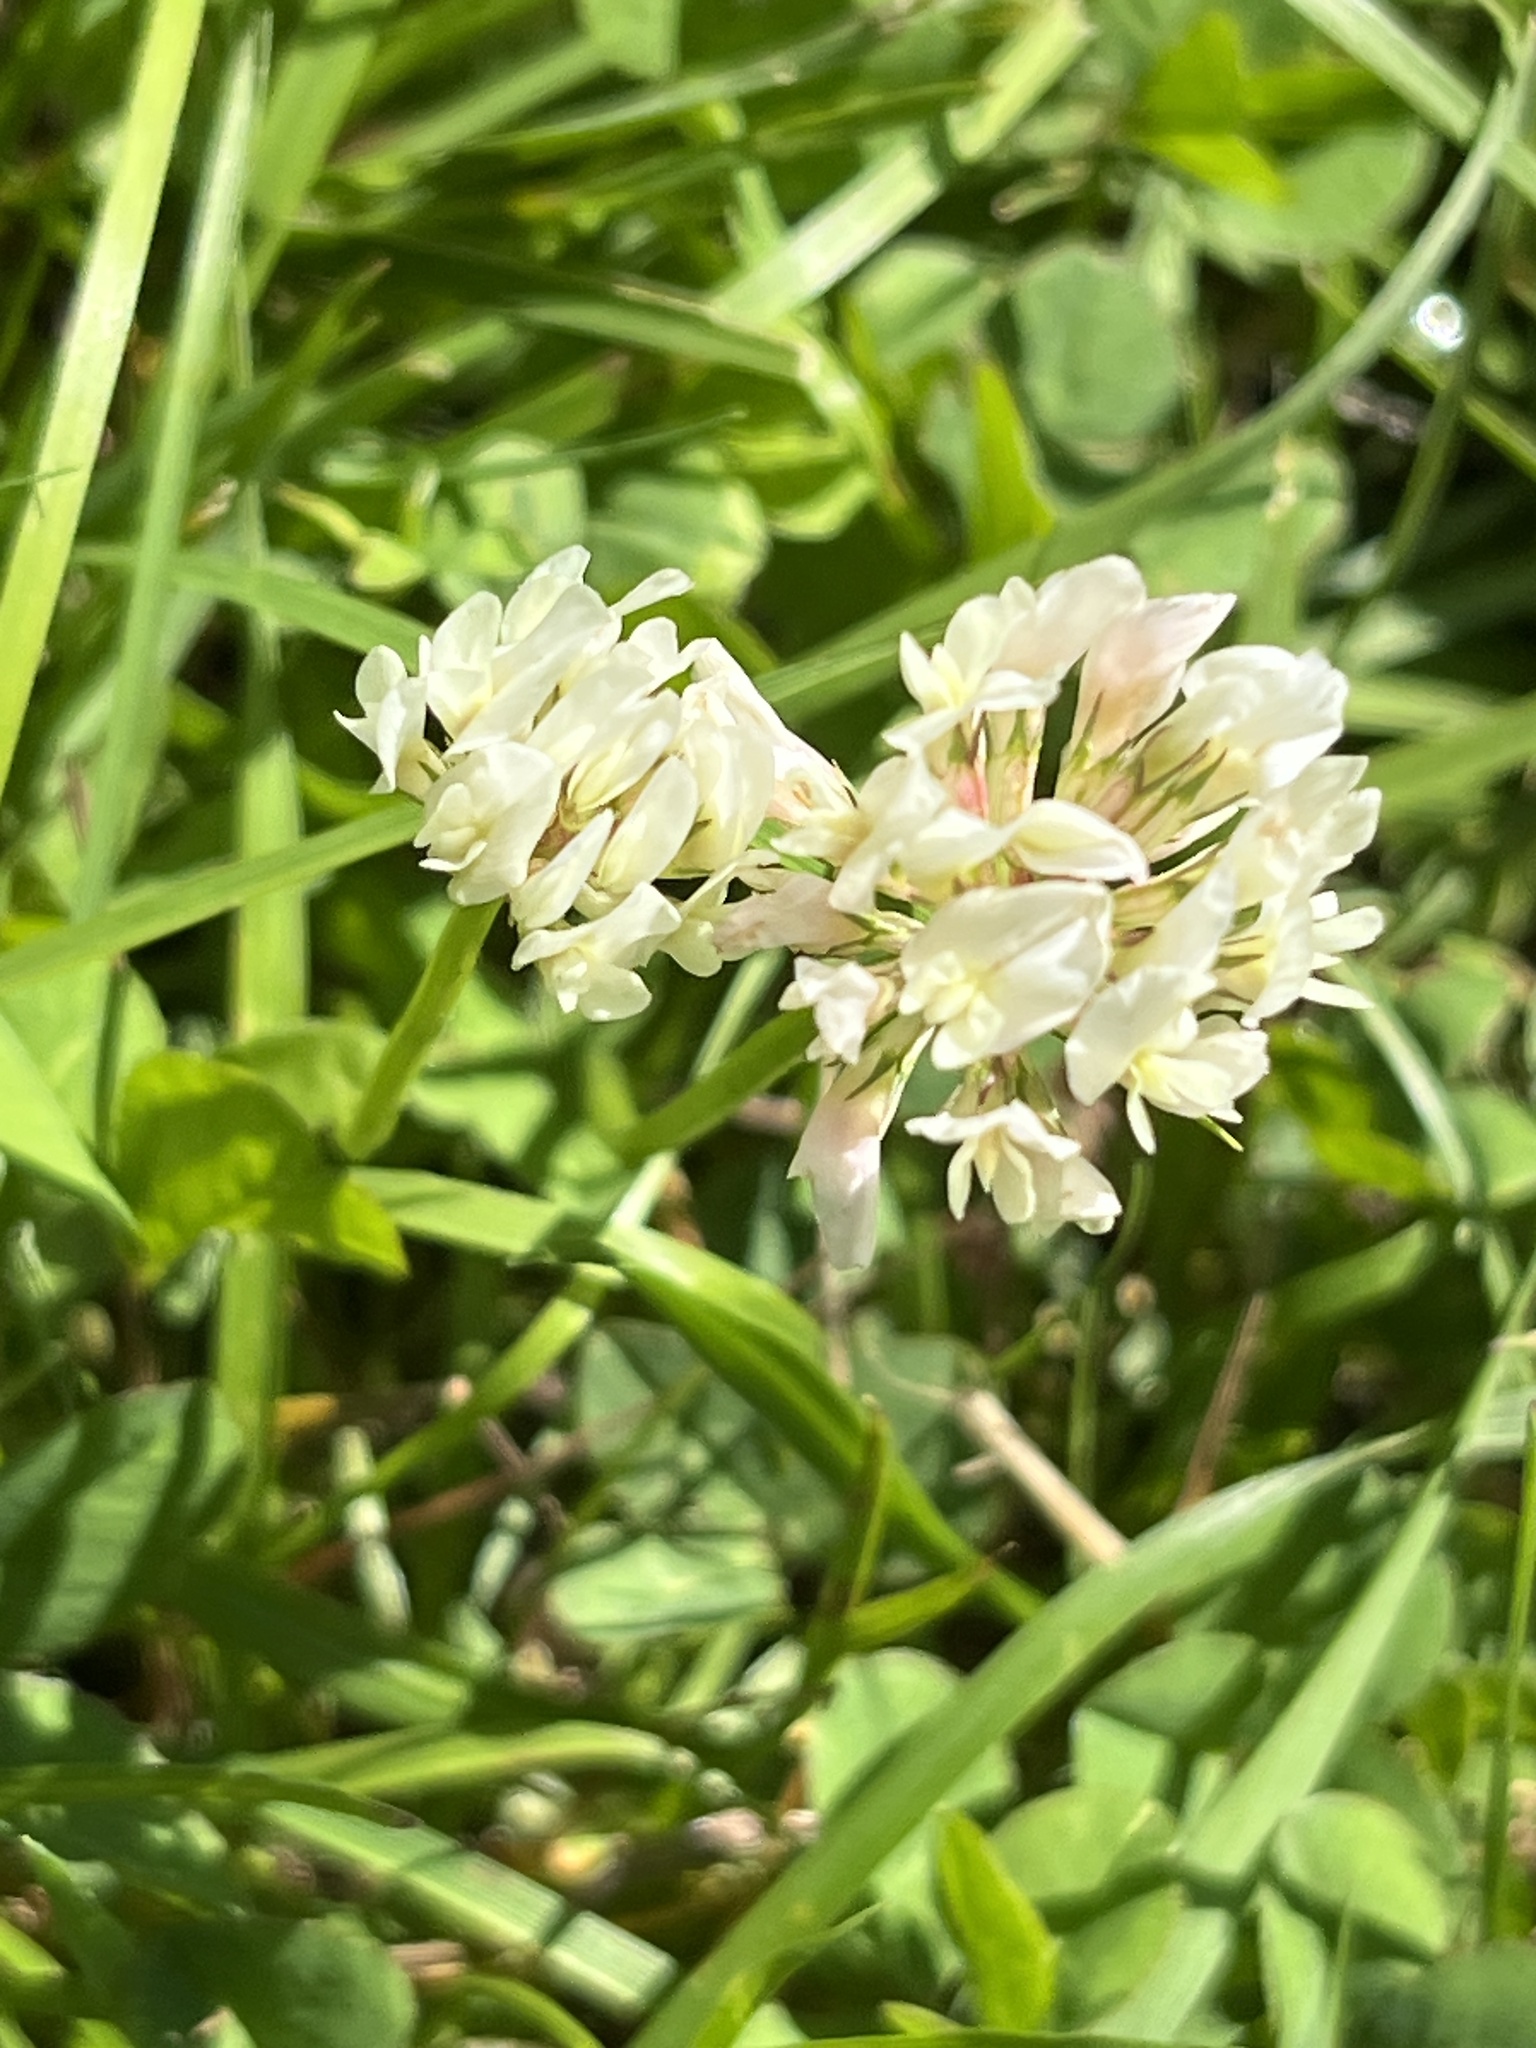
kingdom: Plantae
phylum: Tracheophyta
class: Magnoliopsida
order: Fabales
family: Fabaceae
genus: Trifolium
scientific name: Trifolium repens
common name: White clover
